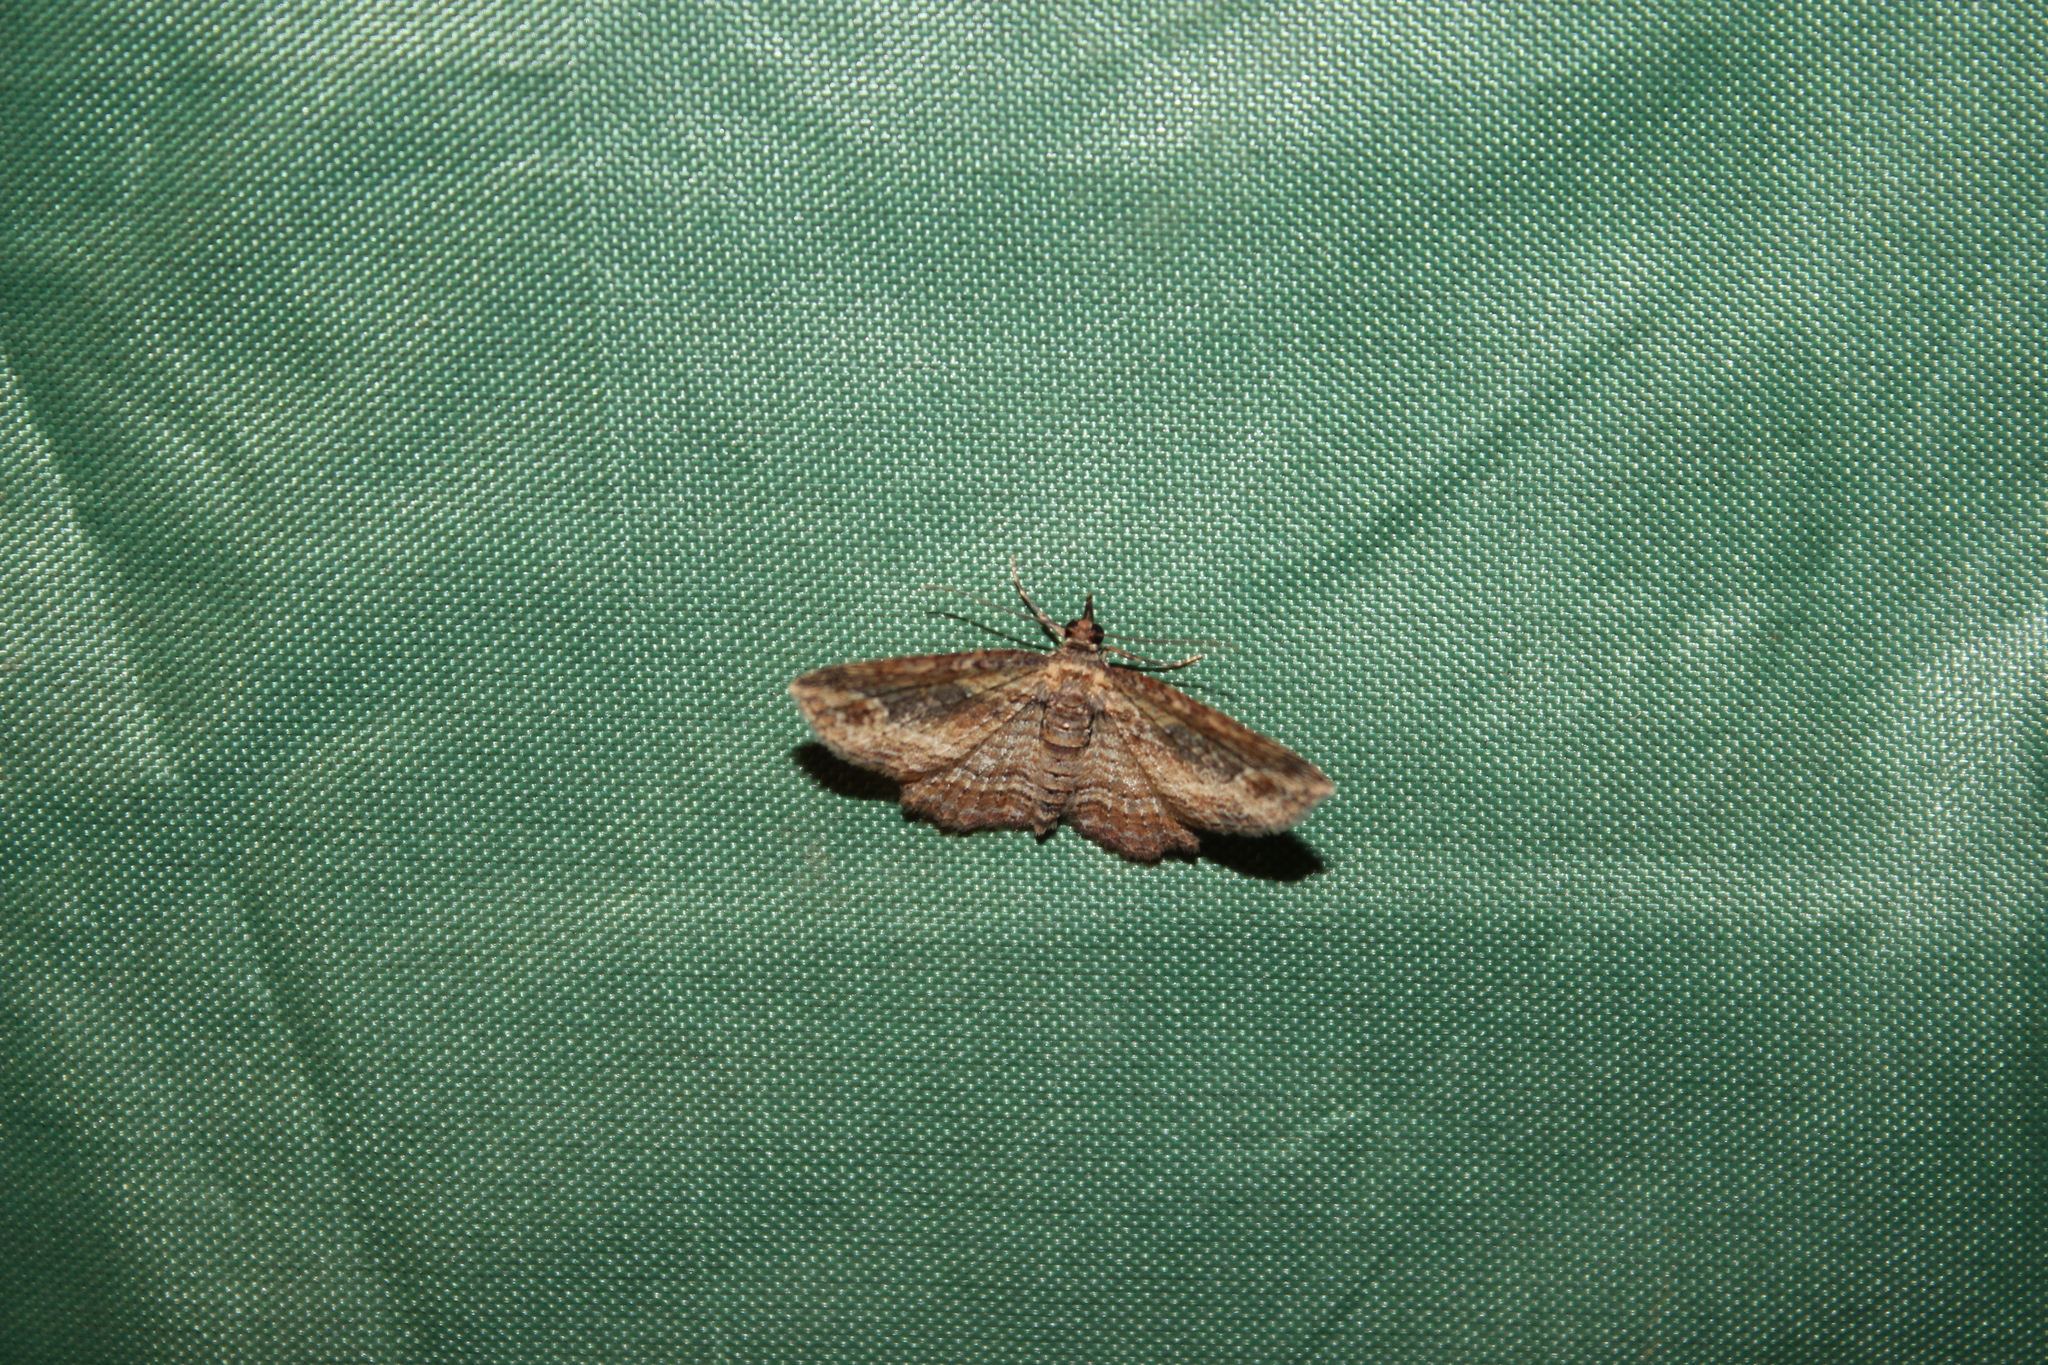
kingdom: Animalia
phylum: Arthropoda
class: Insecta
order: Lepidoptera
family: Geometridae
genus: Chloroclystis
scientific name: Chloroclystis filata
